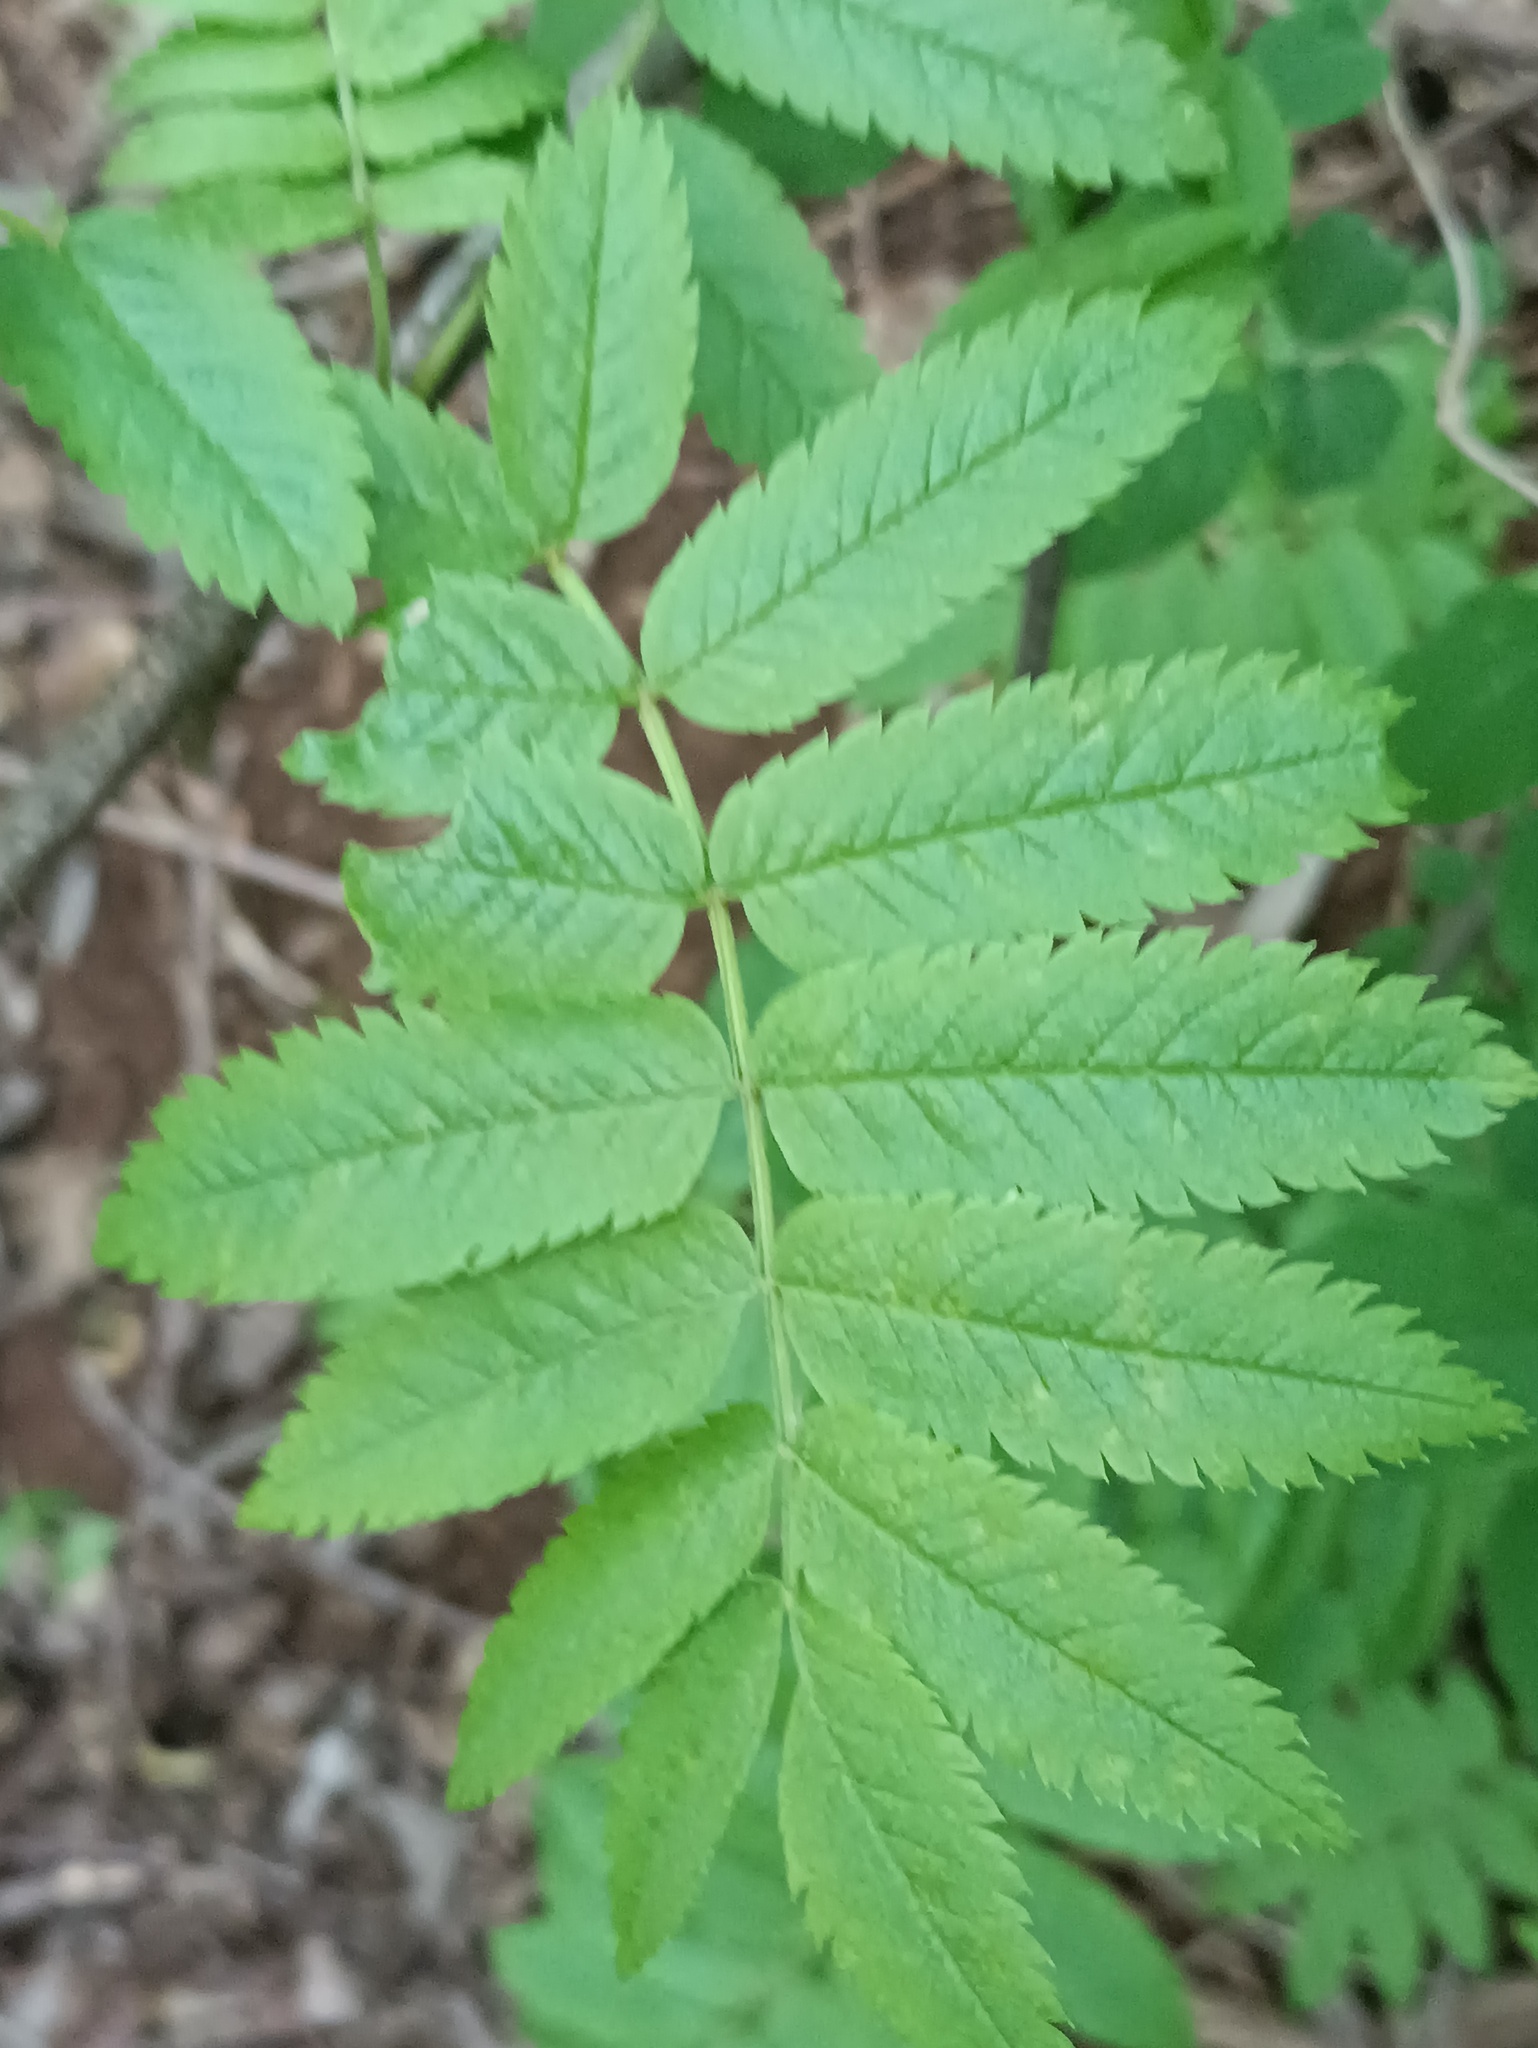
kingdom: Plantae
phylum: Tracheophyta
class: Magnoliopsida
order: Rosales
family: Rosaceae
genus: Sorbus
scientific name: Sorbus aucuparia
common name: Rowan
